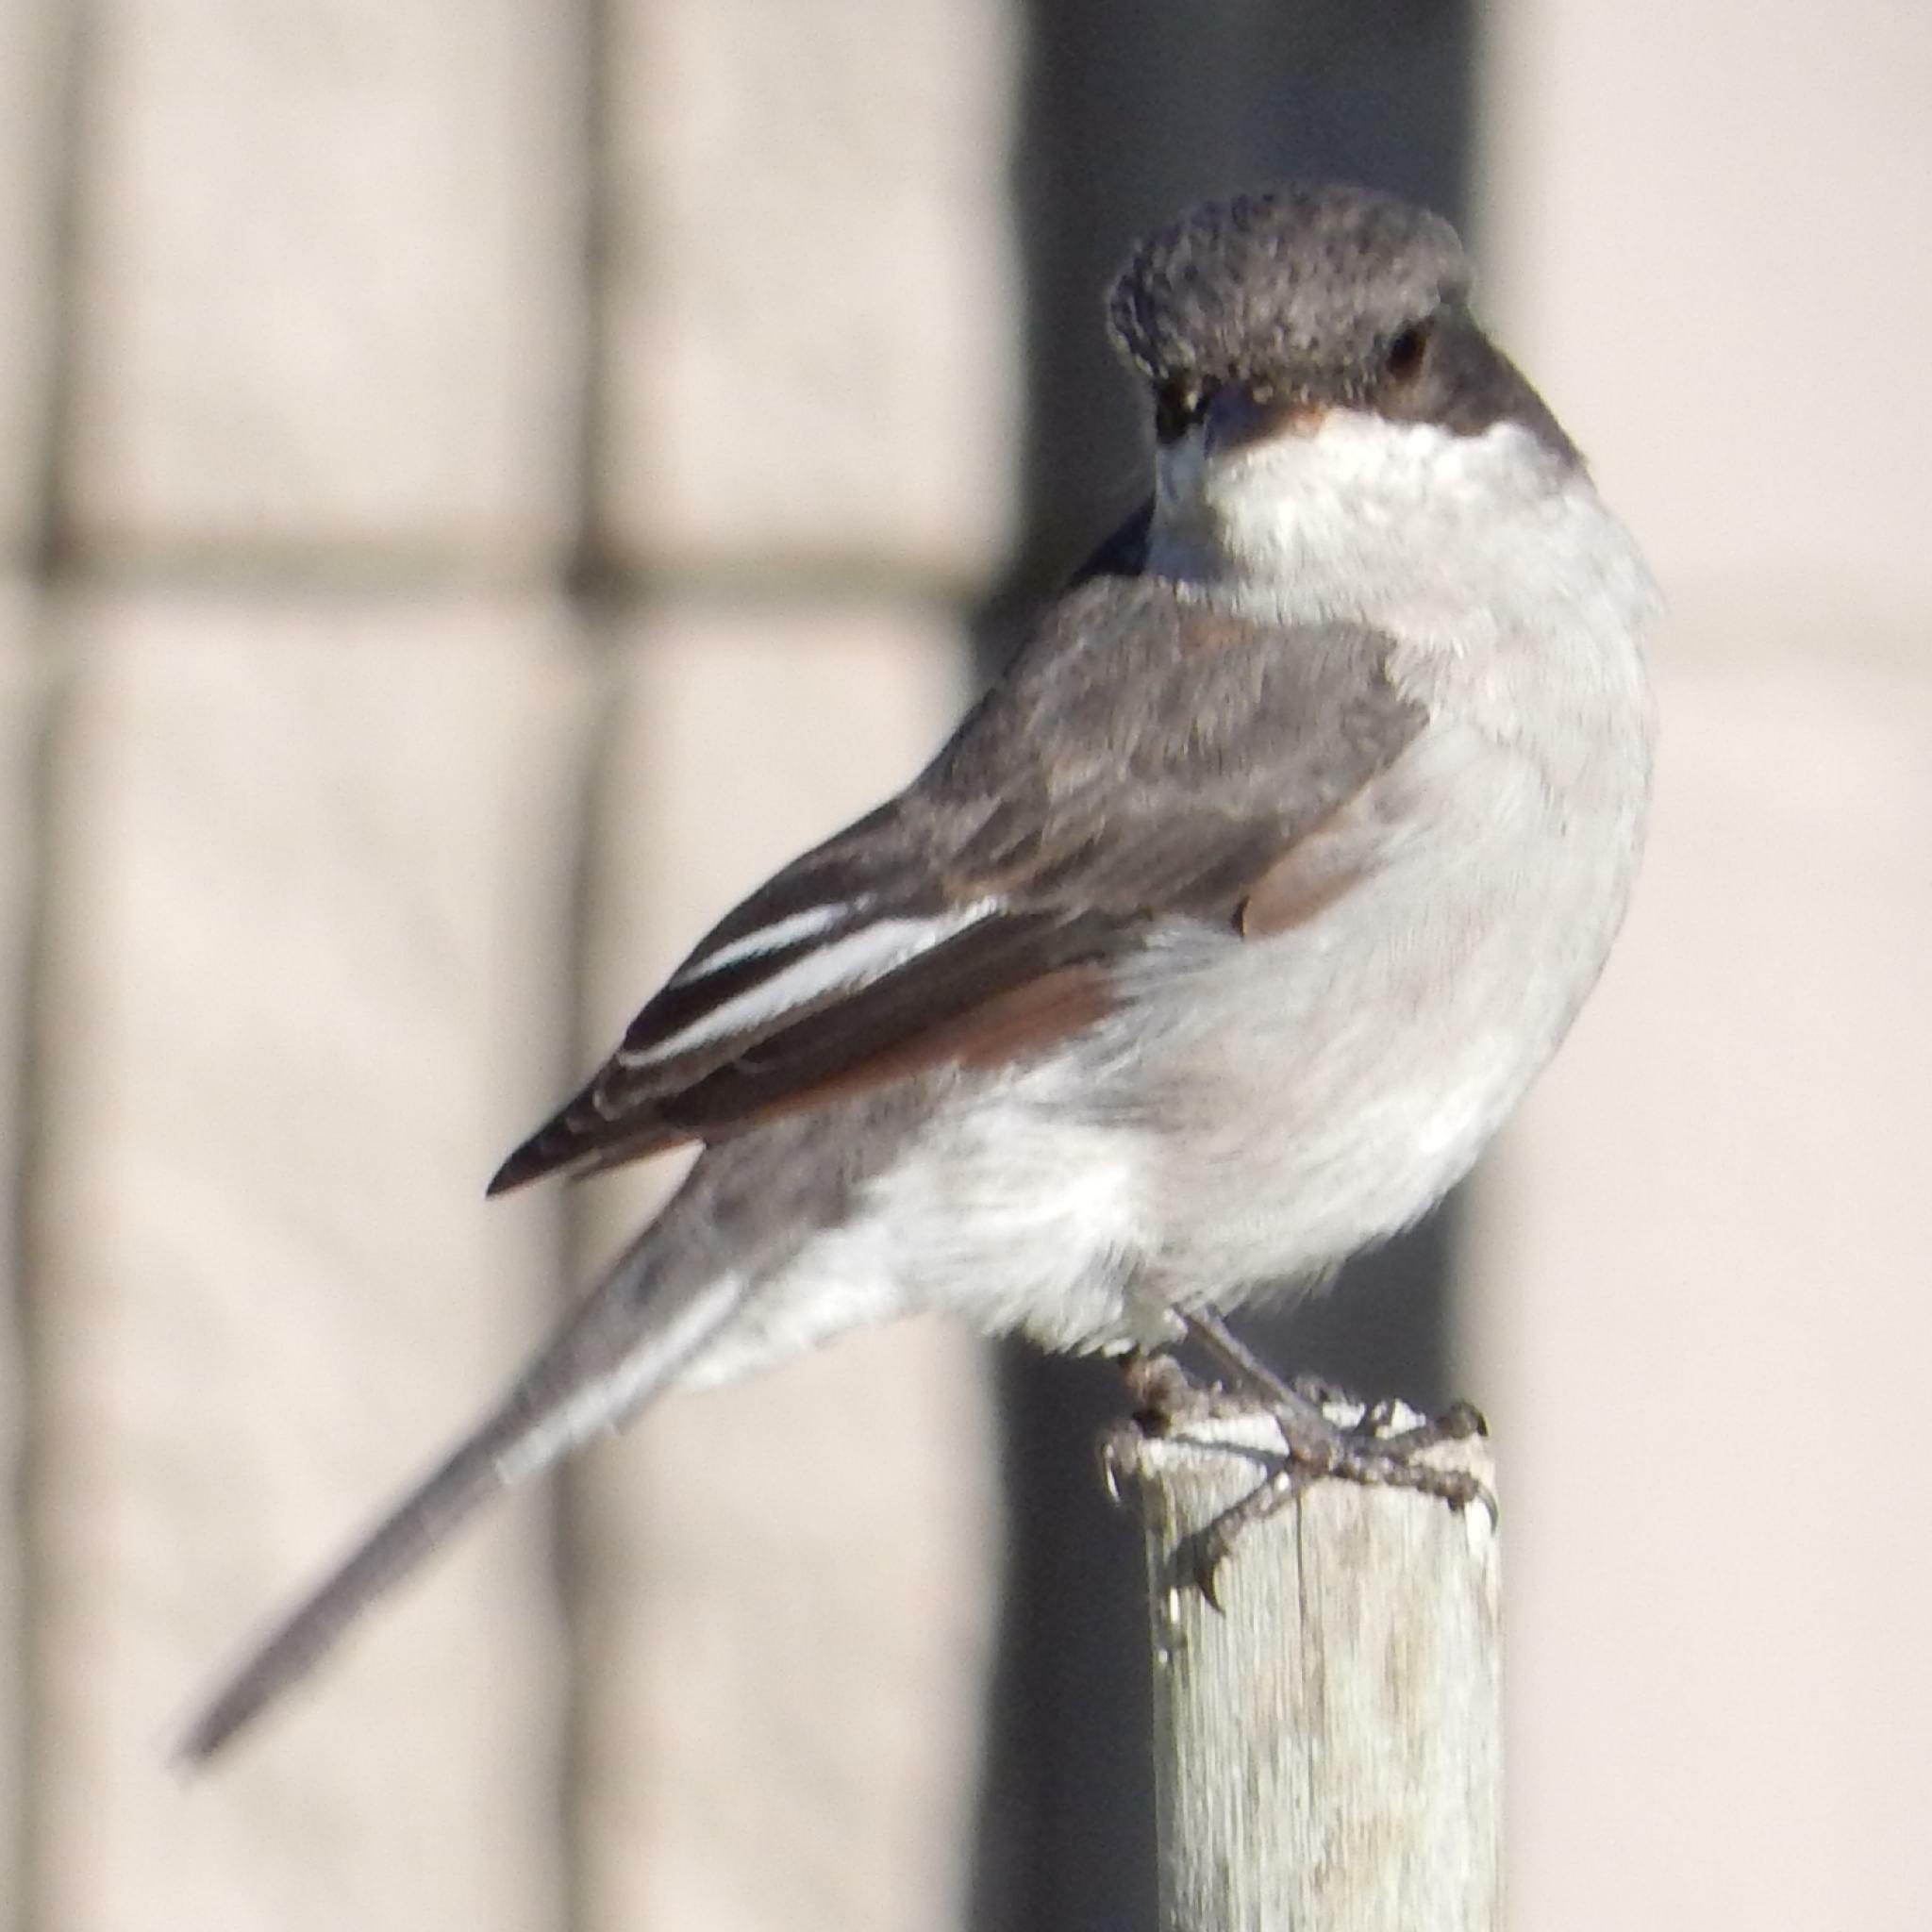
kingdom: Animalia
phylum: Chordata
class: Aves
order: Passeriformes
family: Muscicapidae
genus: Sigelus
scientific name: Sigelus silens
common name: Fiscal flycatcher
